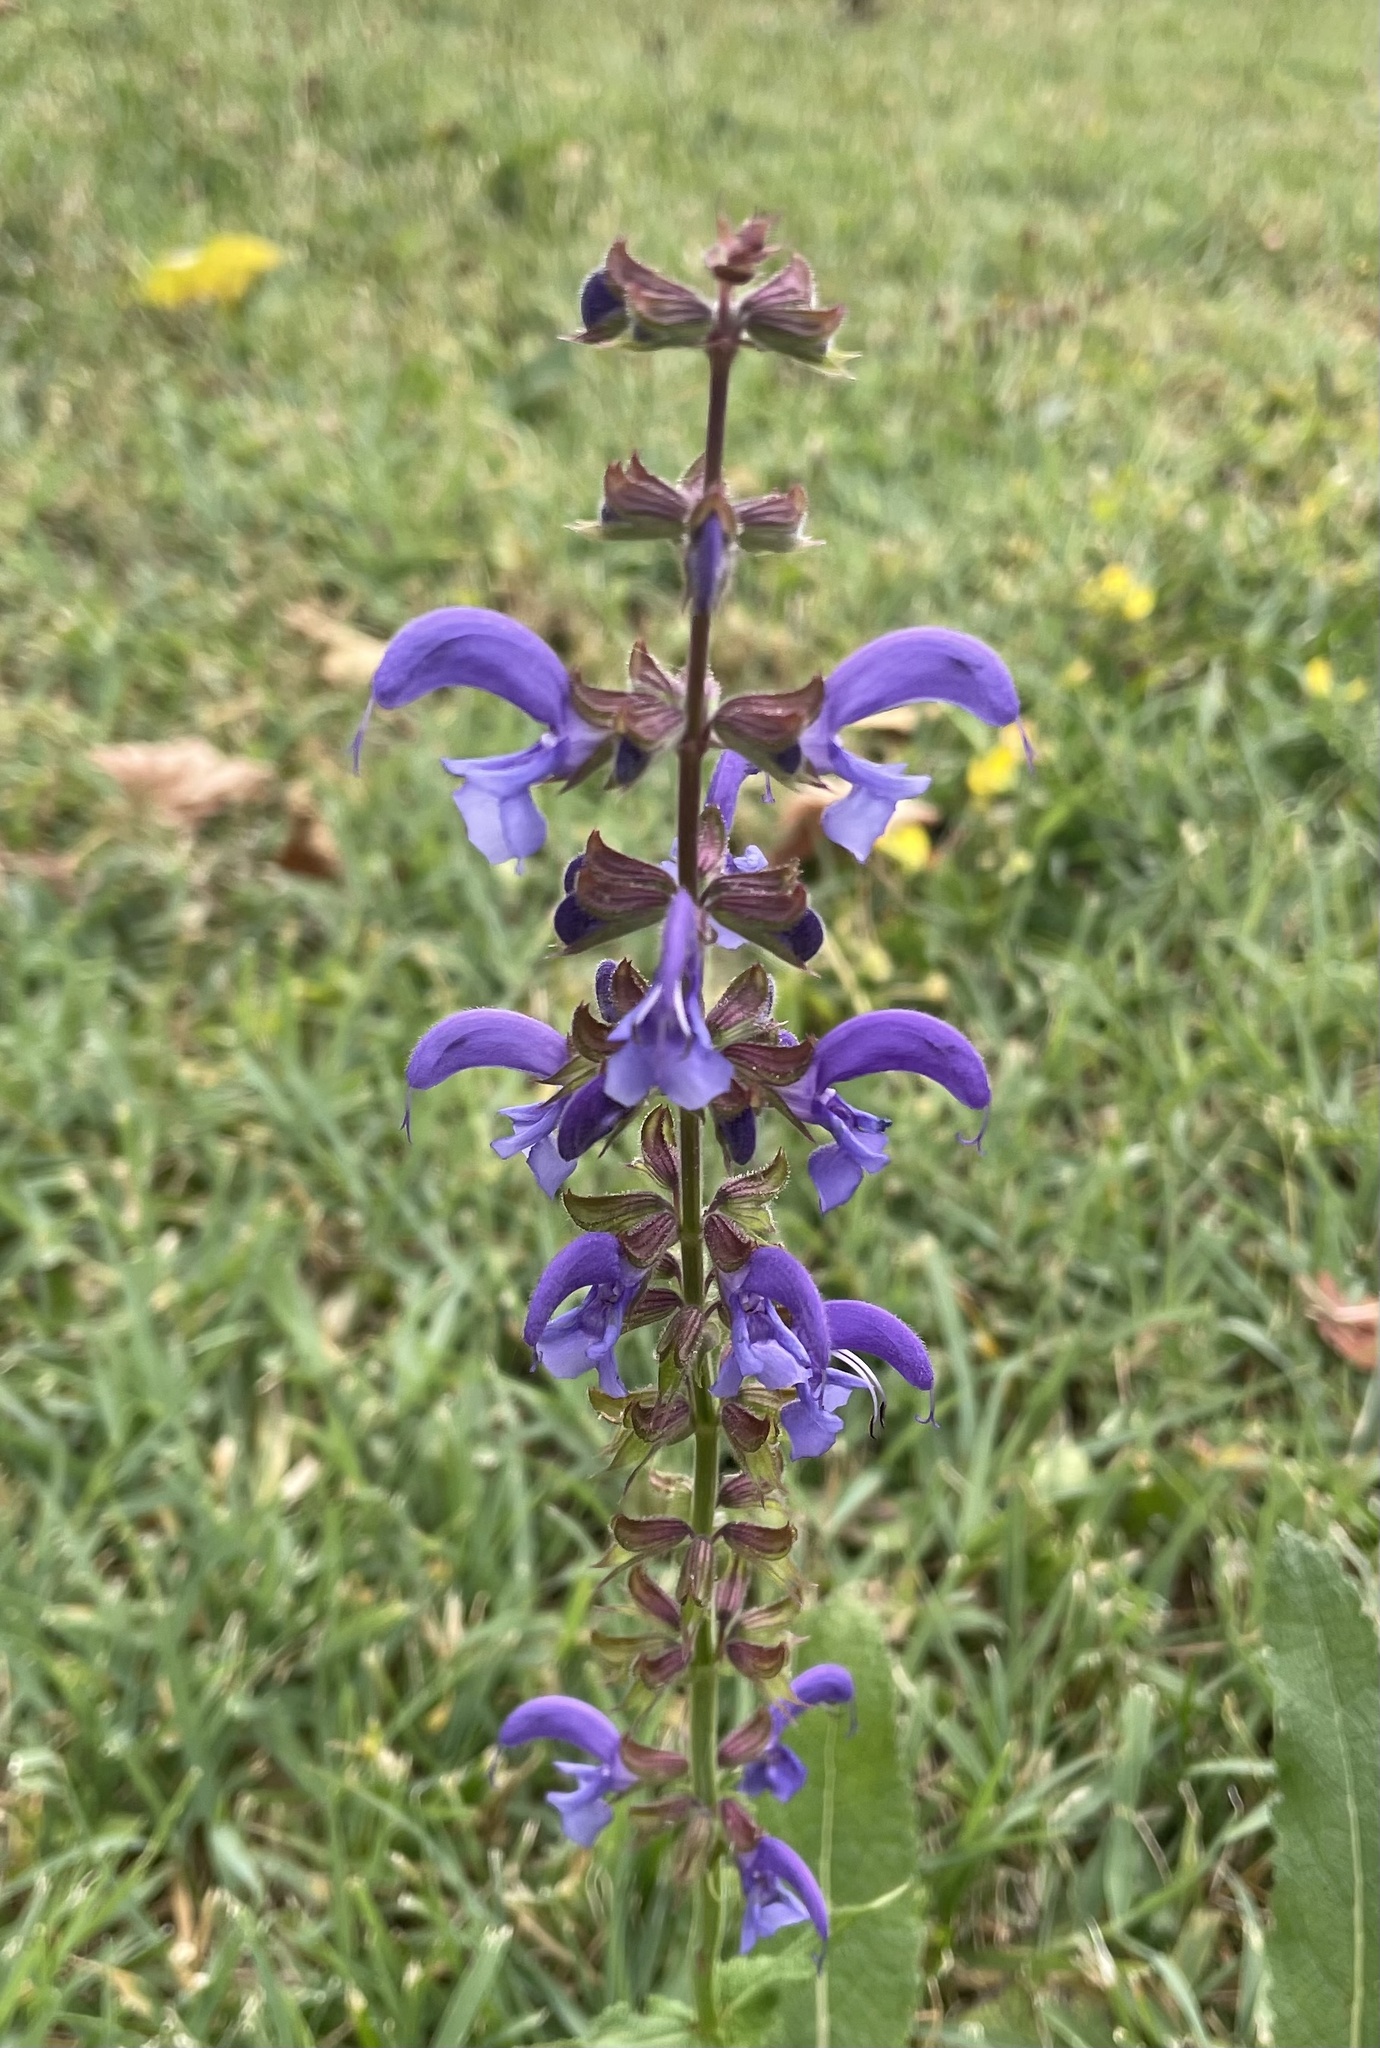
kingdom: Plantae
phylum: Tracheophyta
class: Magnoliopsida
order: Lamiales
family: Lamiaceae
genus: Salvia
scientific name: Salvia pratensis
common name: Meadow sage
